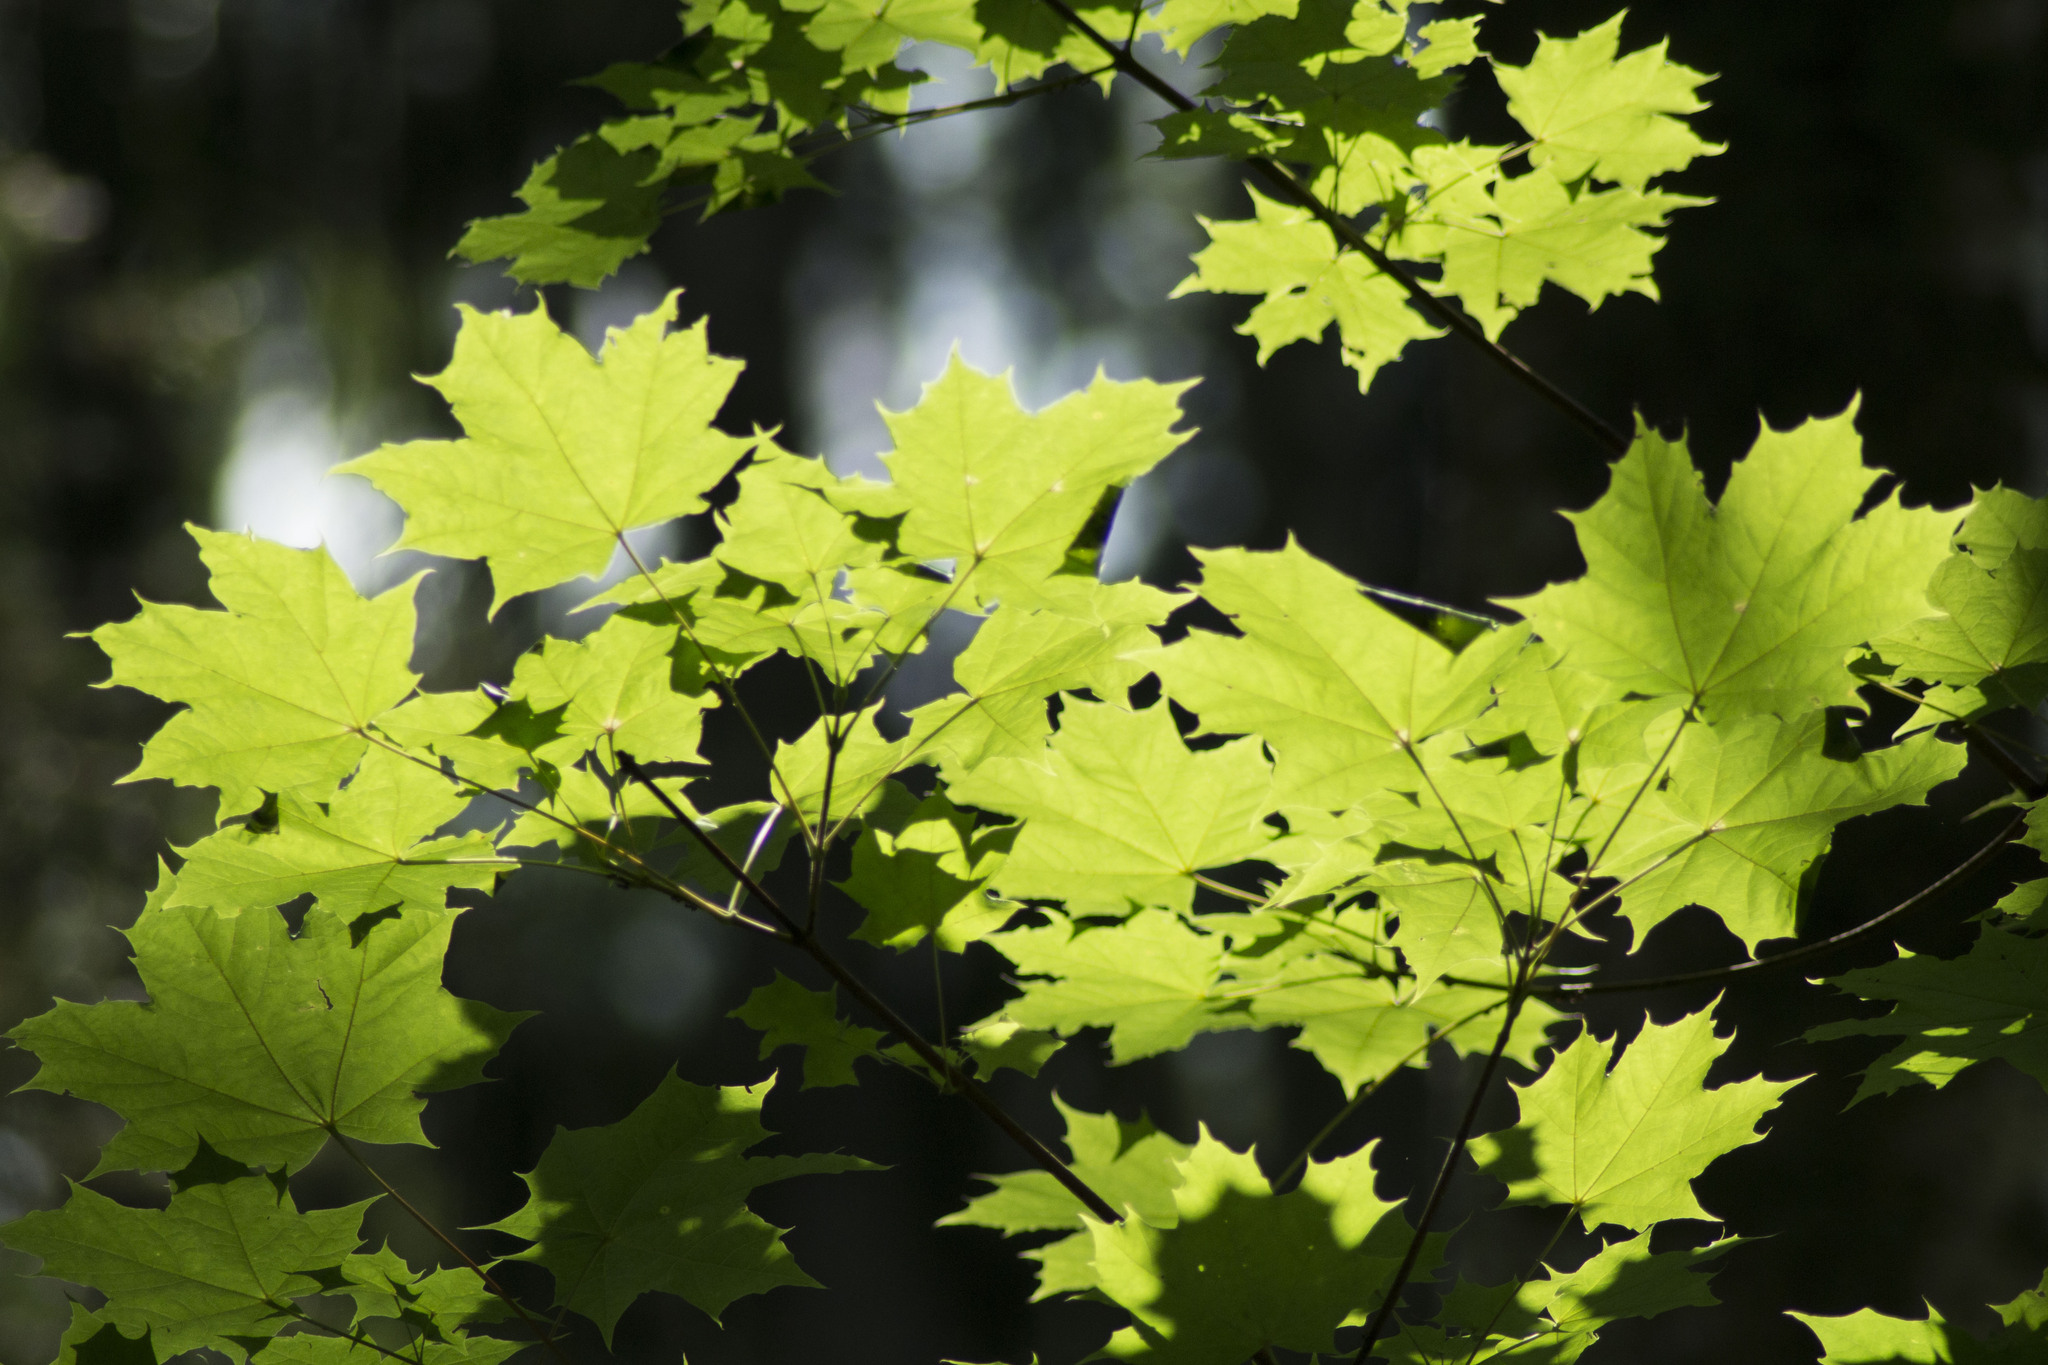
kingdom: Plantae
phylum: Tracheophyta
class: Magnoliopsida
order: Sapindales
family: Sapindaceae
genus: Acer
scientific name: Acer platanoides
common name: Norway maple
